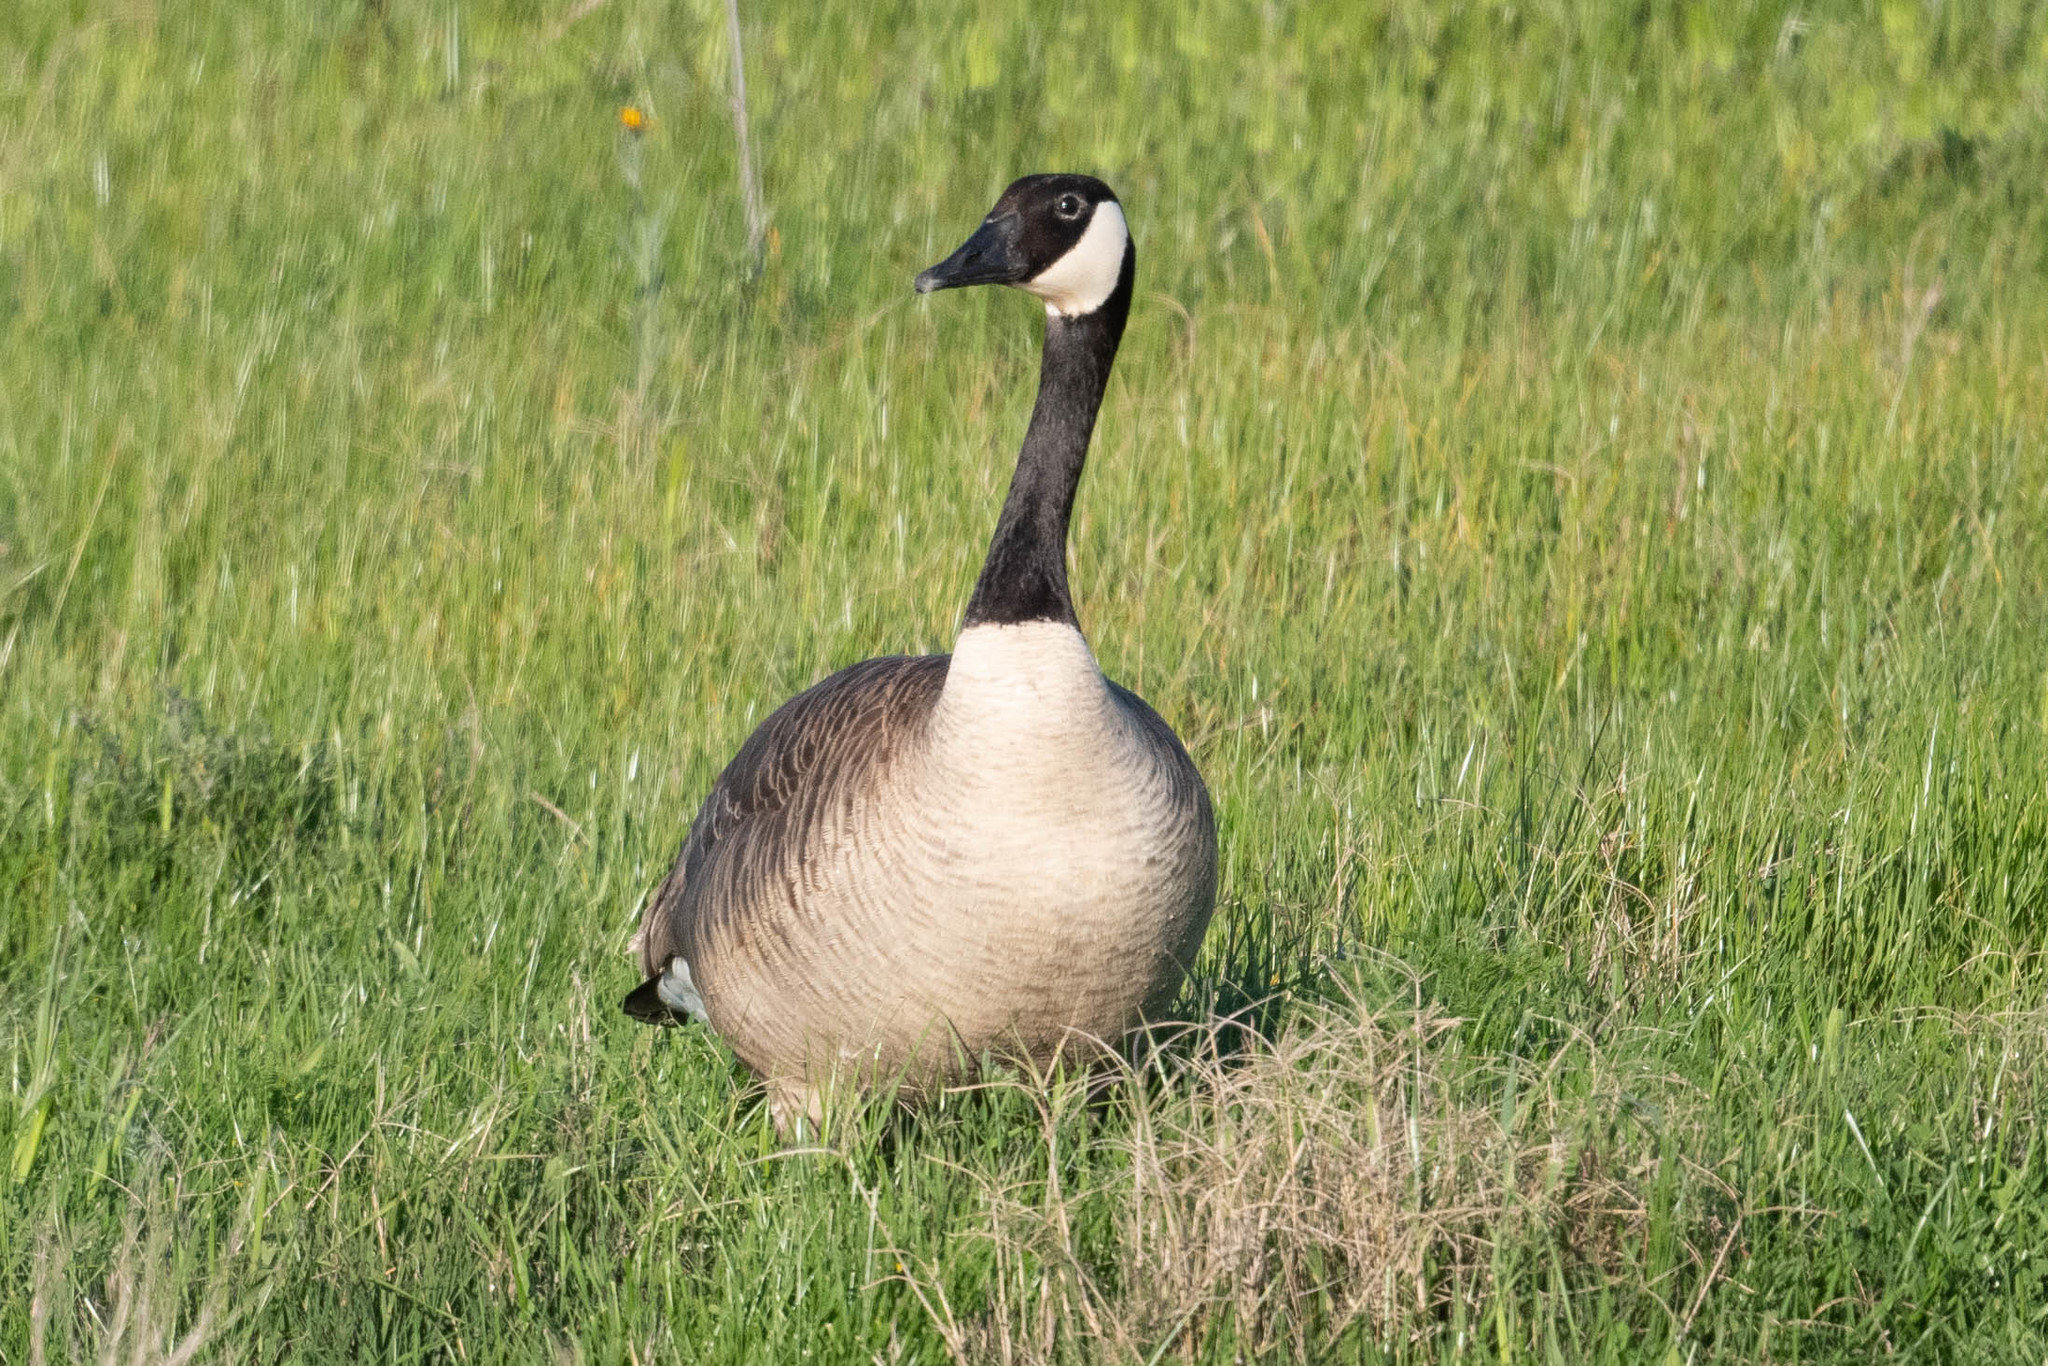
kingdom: Animalia
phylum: Chordata
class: Aves
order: Anseriformes
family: Anatidae
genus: Branta
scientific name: Branta canadensis
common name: Canada goose
